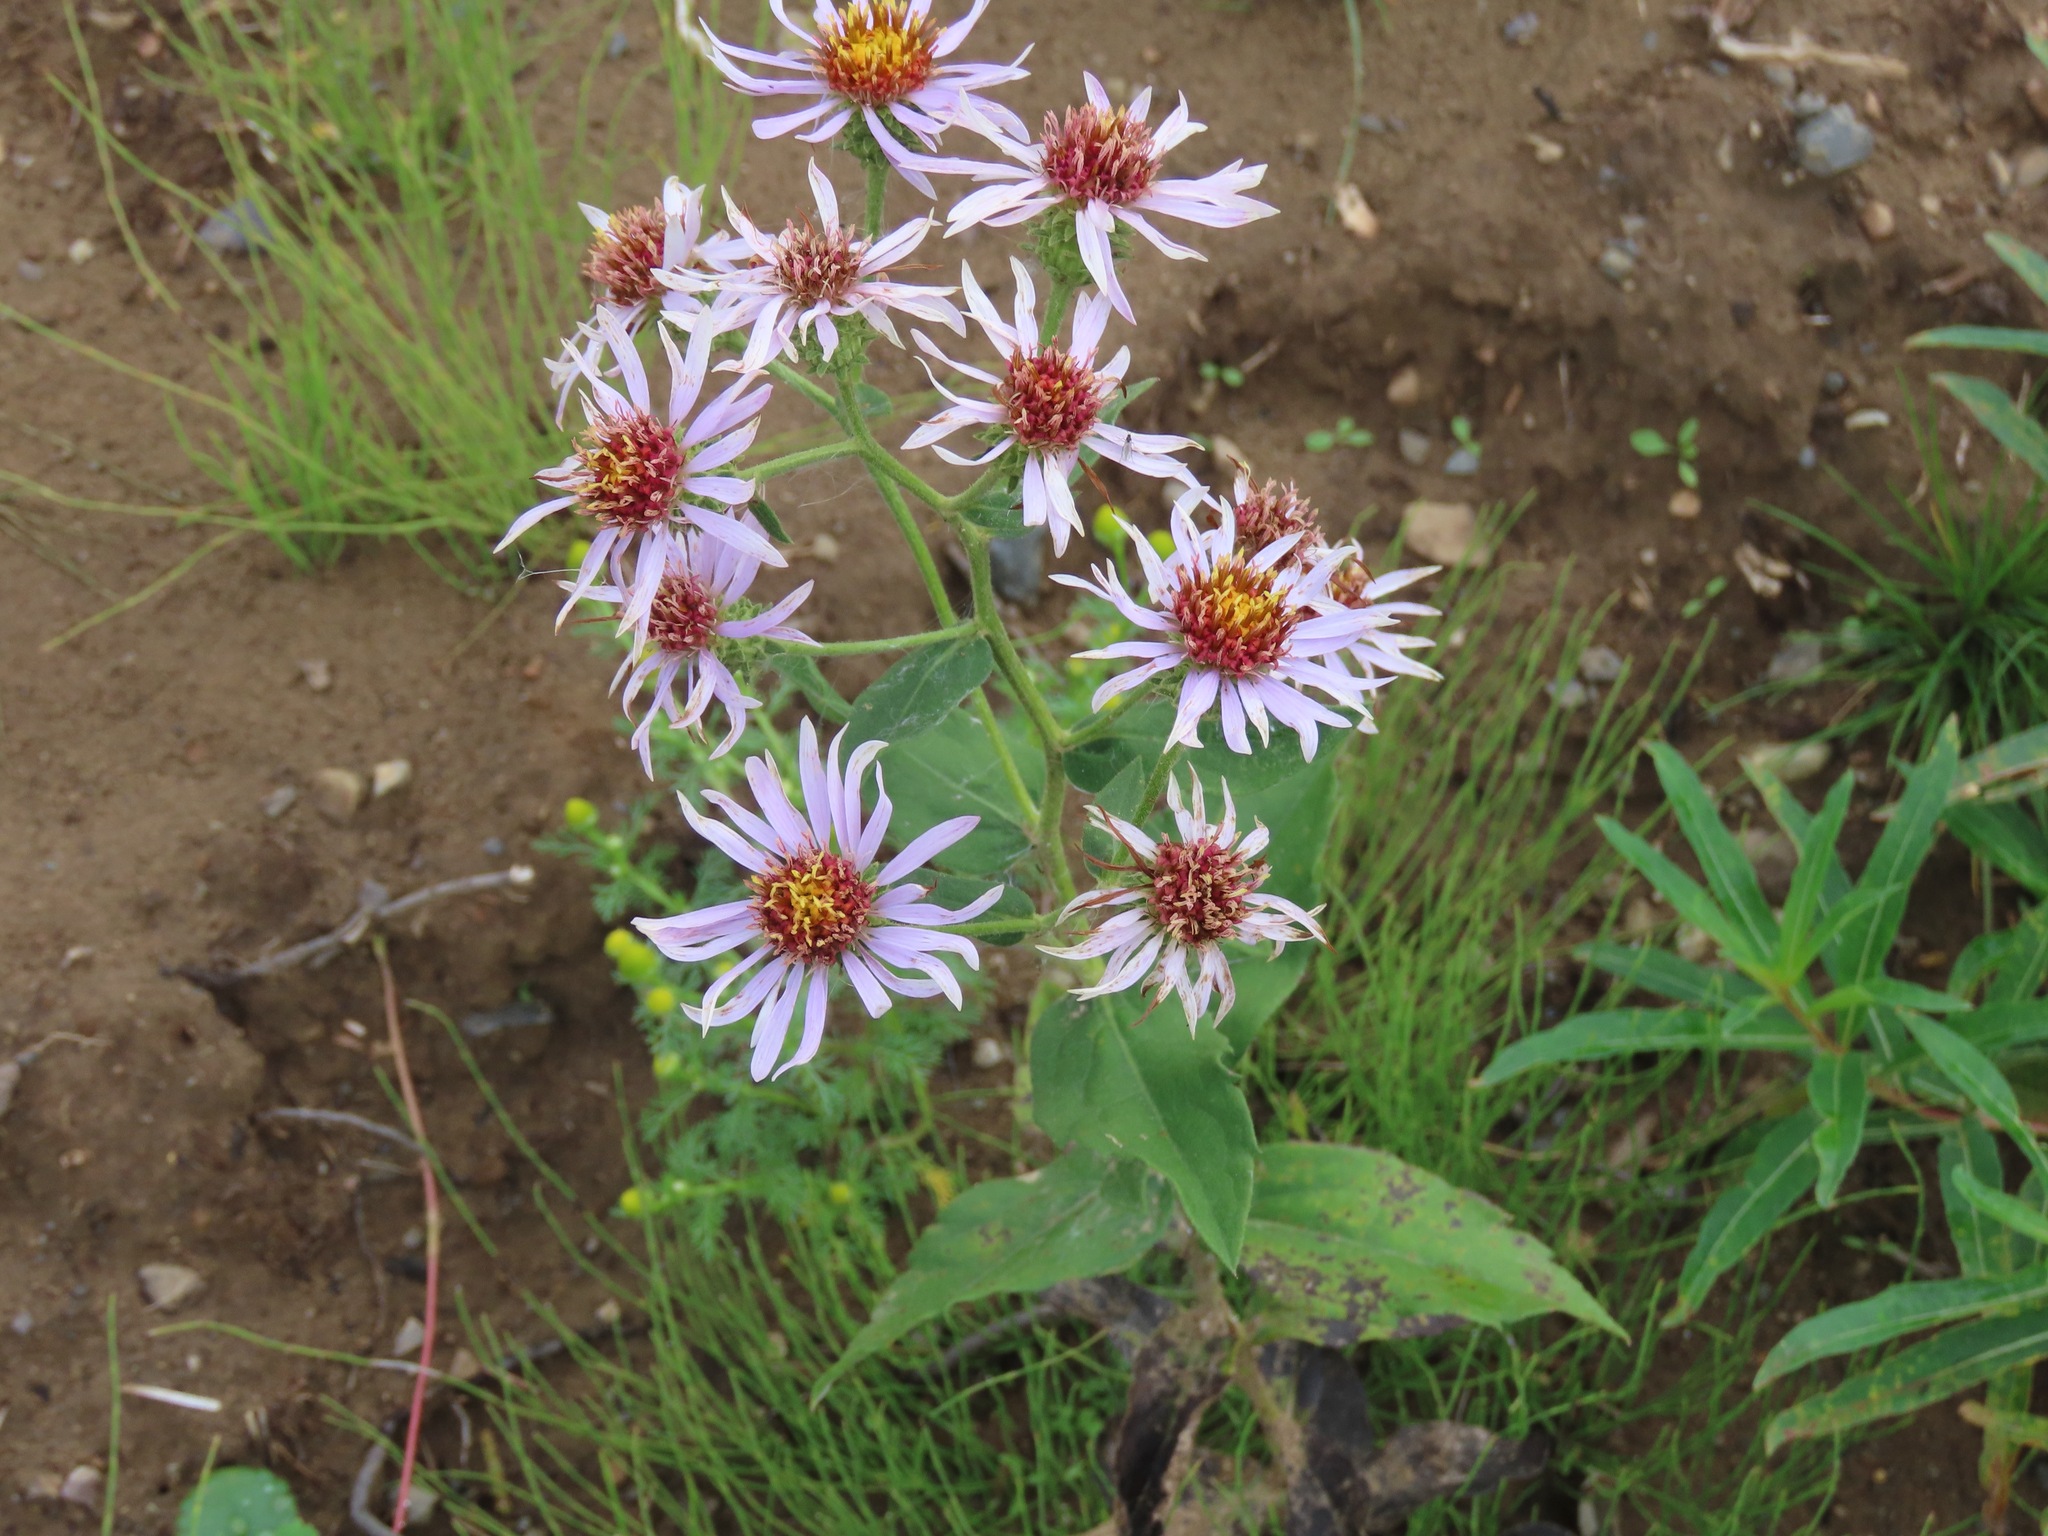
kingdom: Plantae
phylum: Tracheophyta
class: Magnoliopsida
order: Asterales
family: Asteraceae
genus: Eurybia
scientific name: Eurybia conspicua
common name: Showy aster
